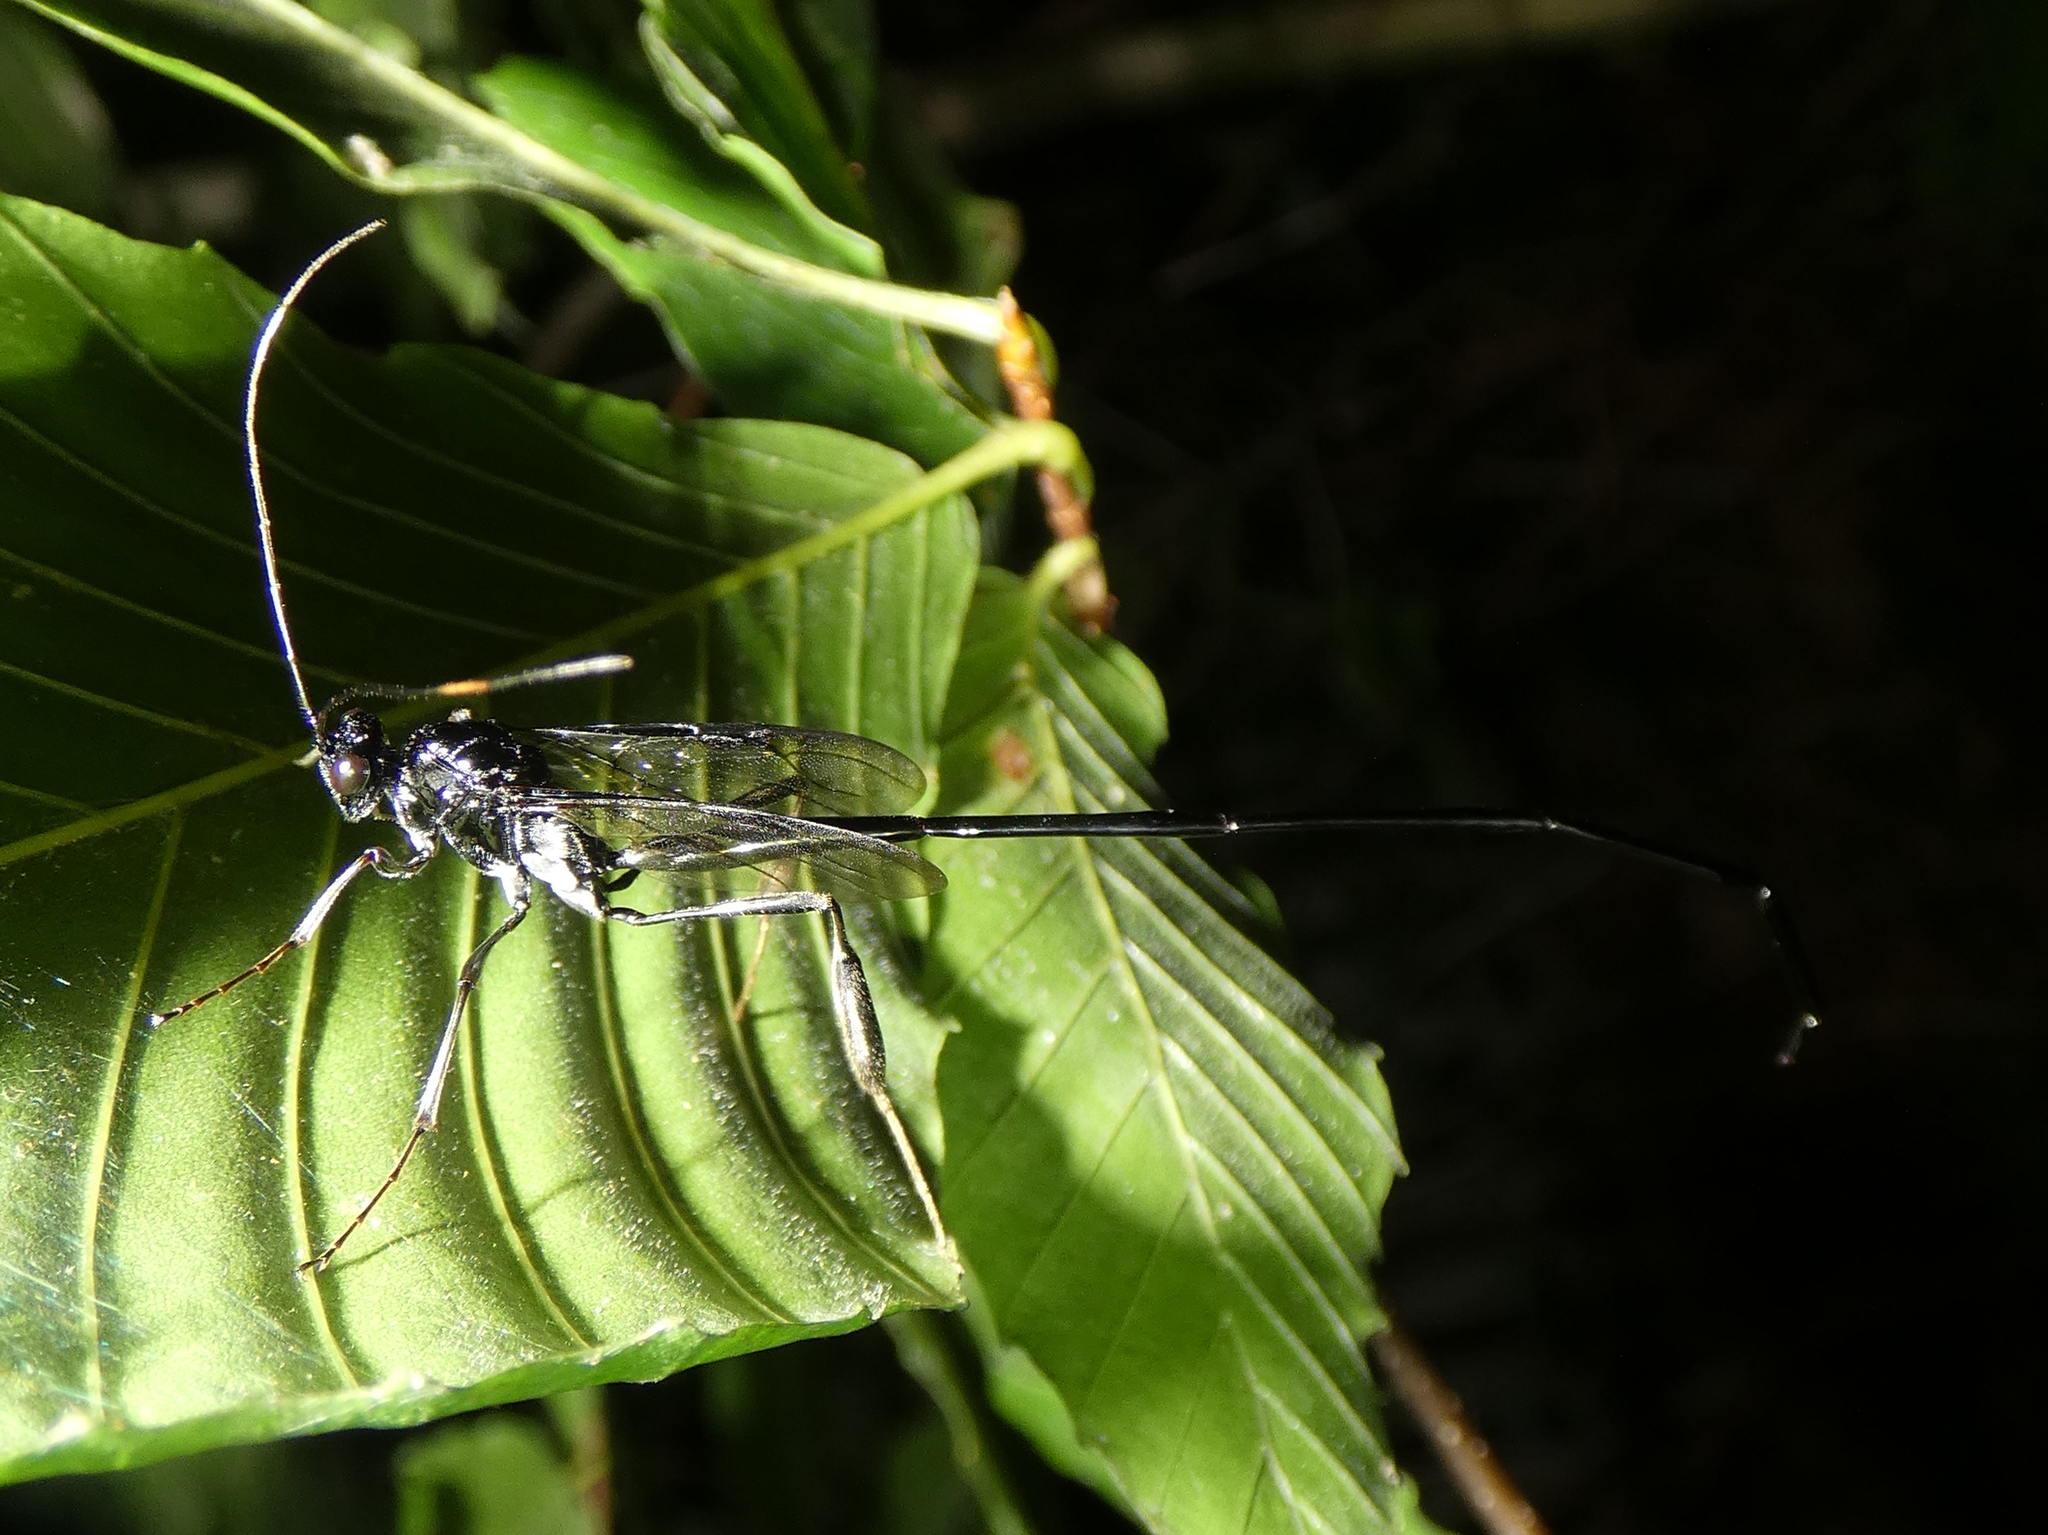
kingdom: Animalia
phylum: Arthropoda
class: Insecta
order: Hymenoptera
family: Pelecinidae
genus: Pelecinus
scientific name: Pelecinus polyturator
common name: American pelecinid wasp
